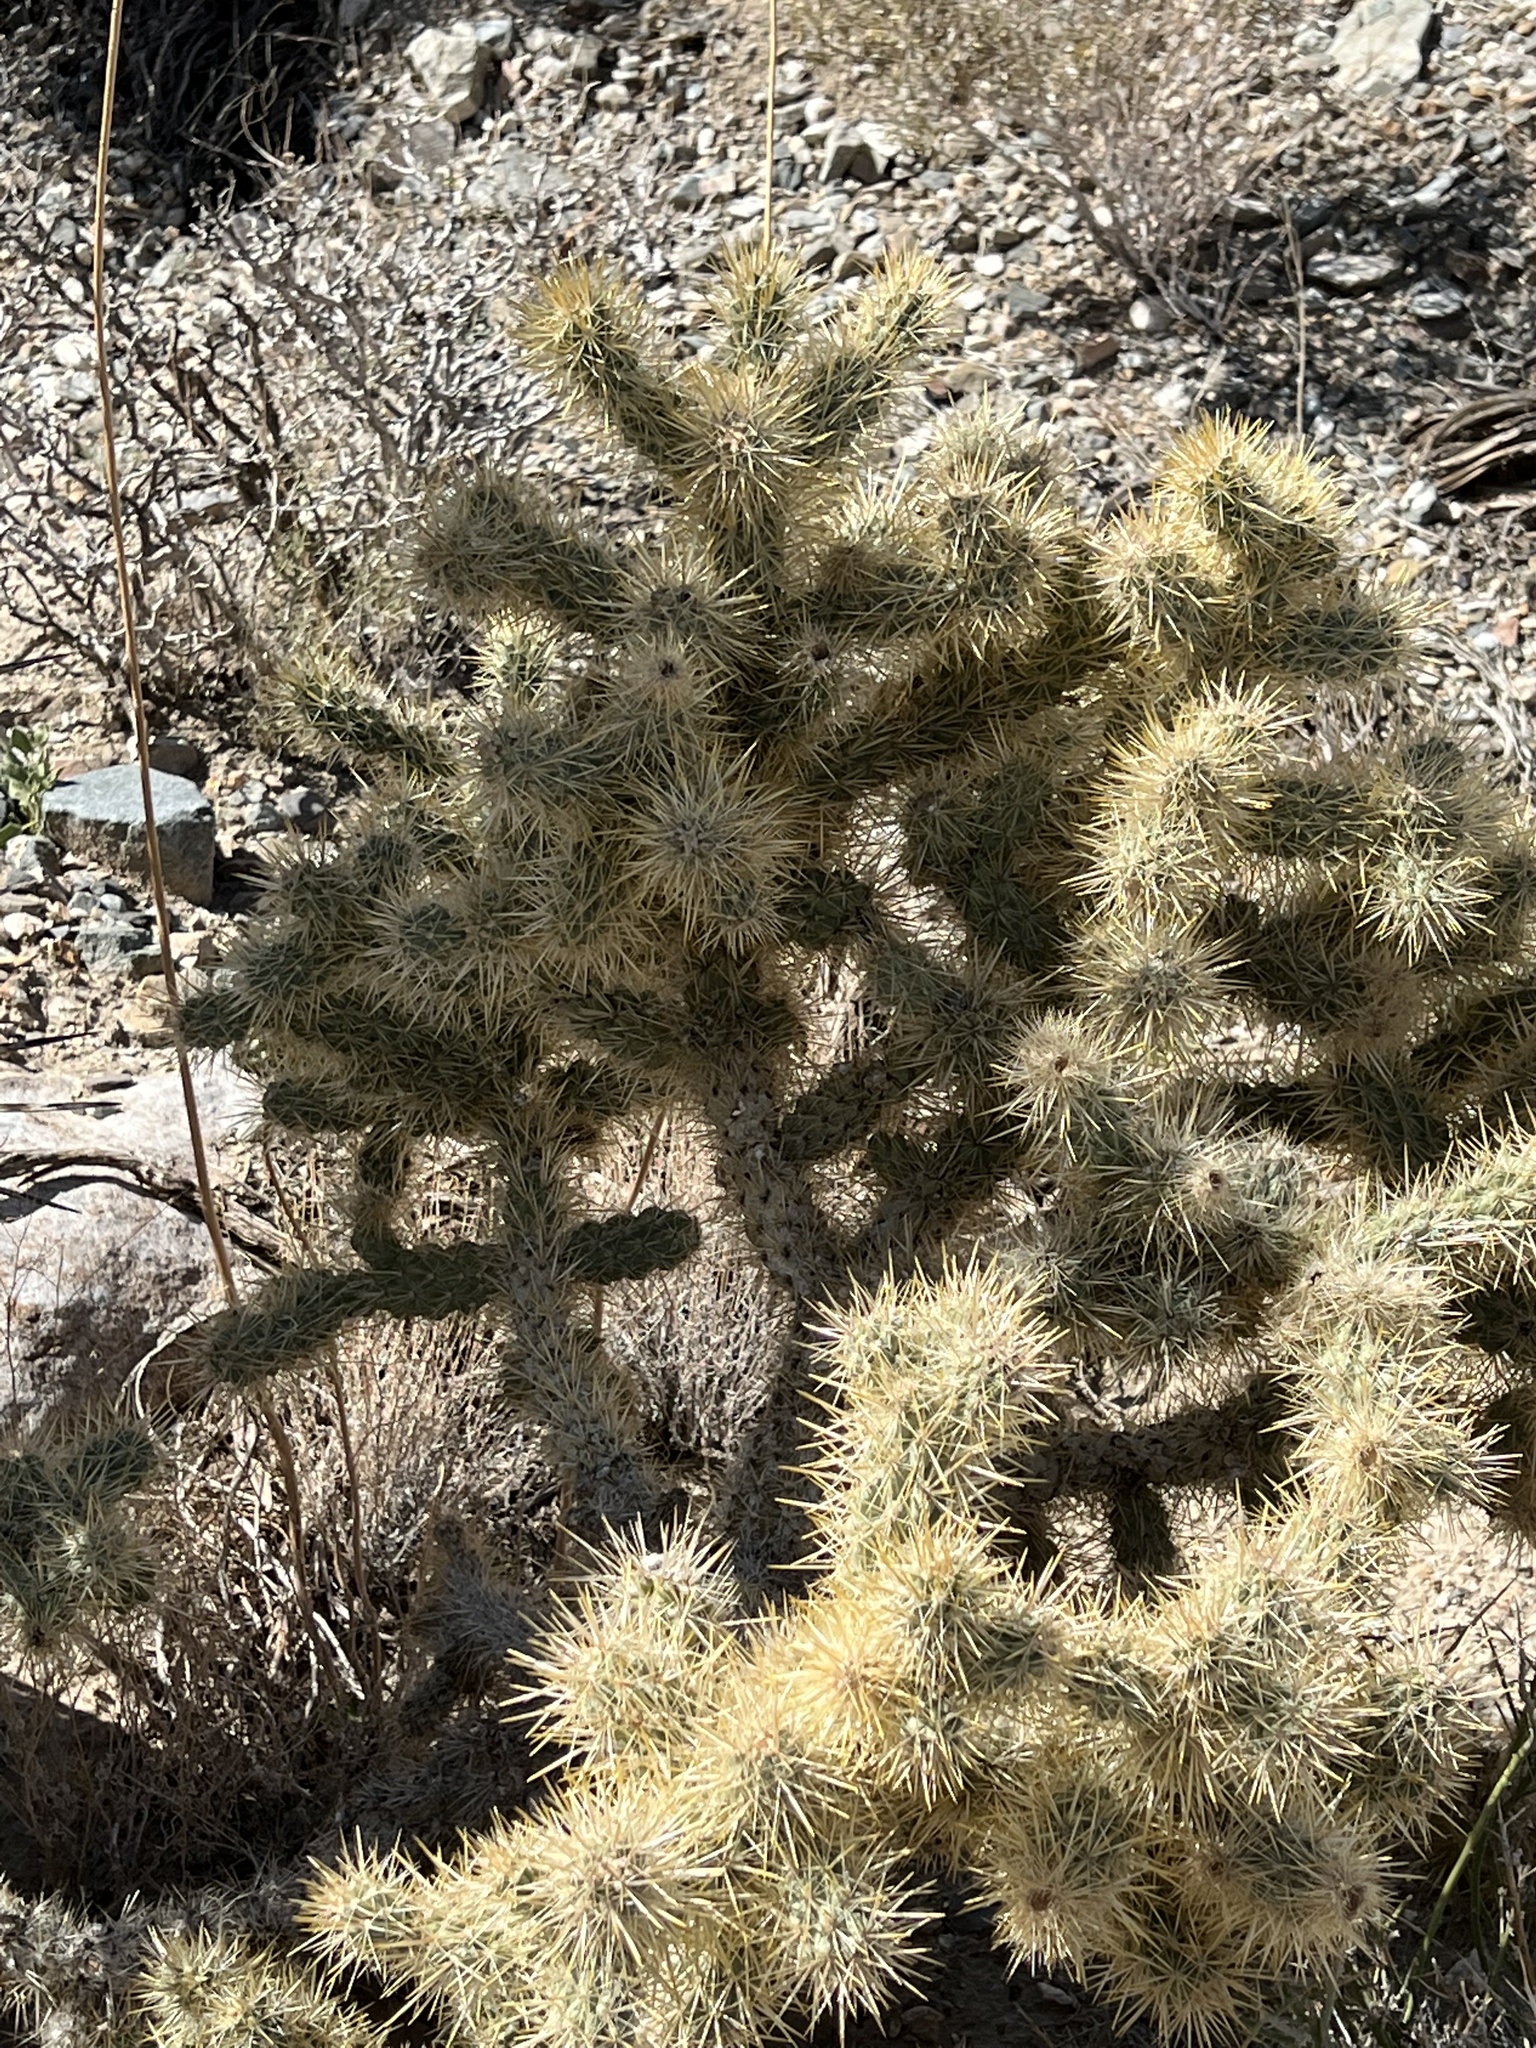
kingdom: Plantae
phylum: Tracheophyta
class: Magnoliopsida
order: Caryophyllales
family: Cactaceae
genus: Cylindropuntia
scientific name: Cylindropuntia echinocarpa
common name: Ground cholla
